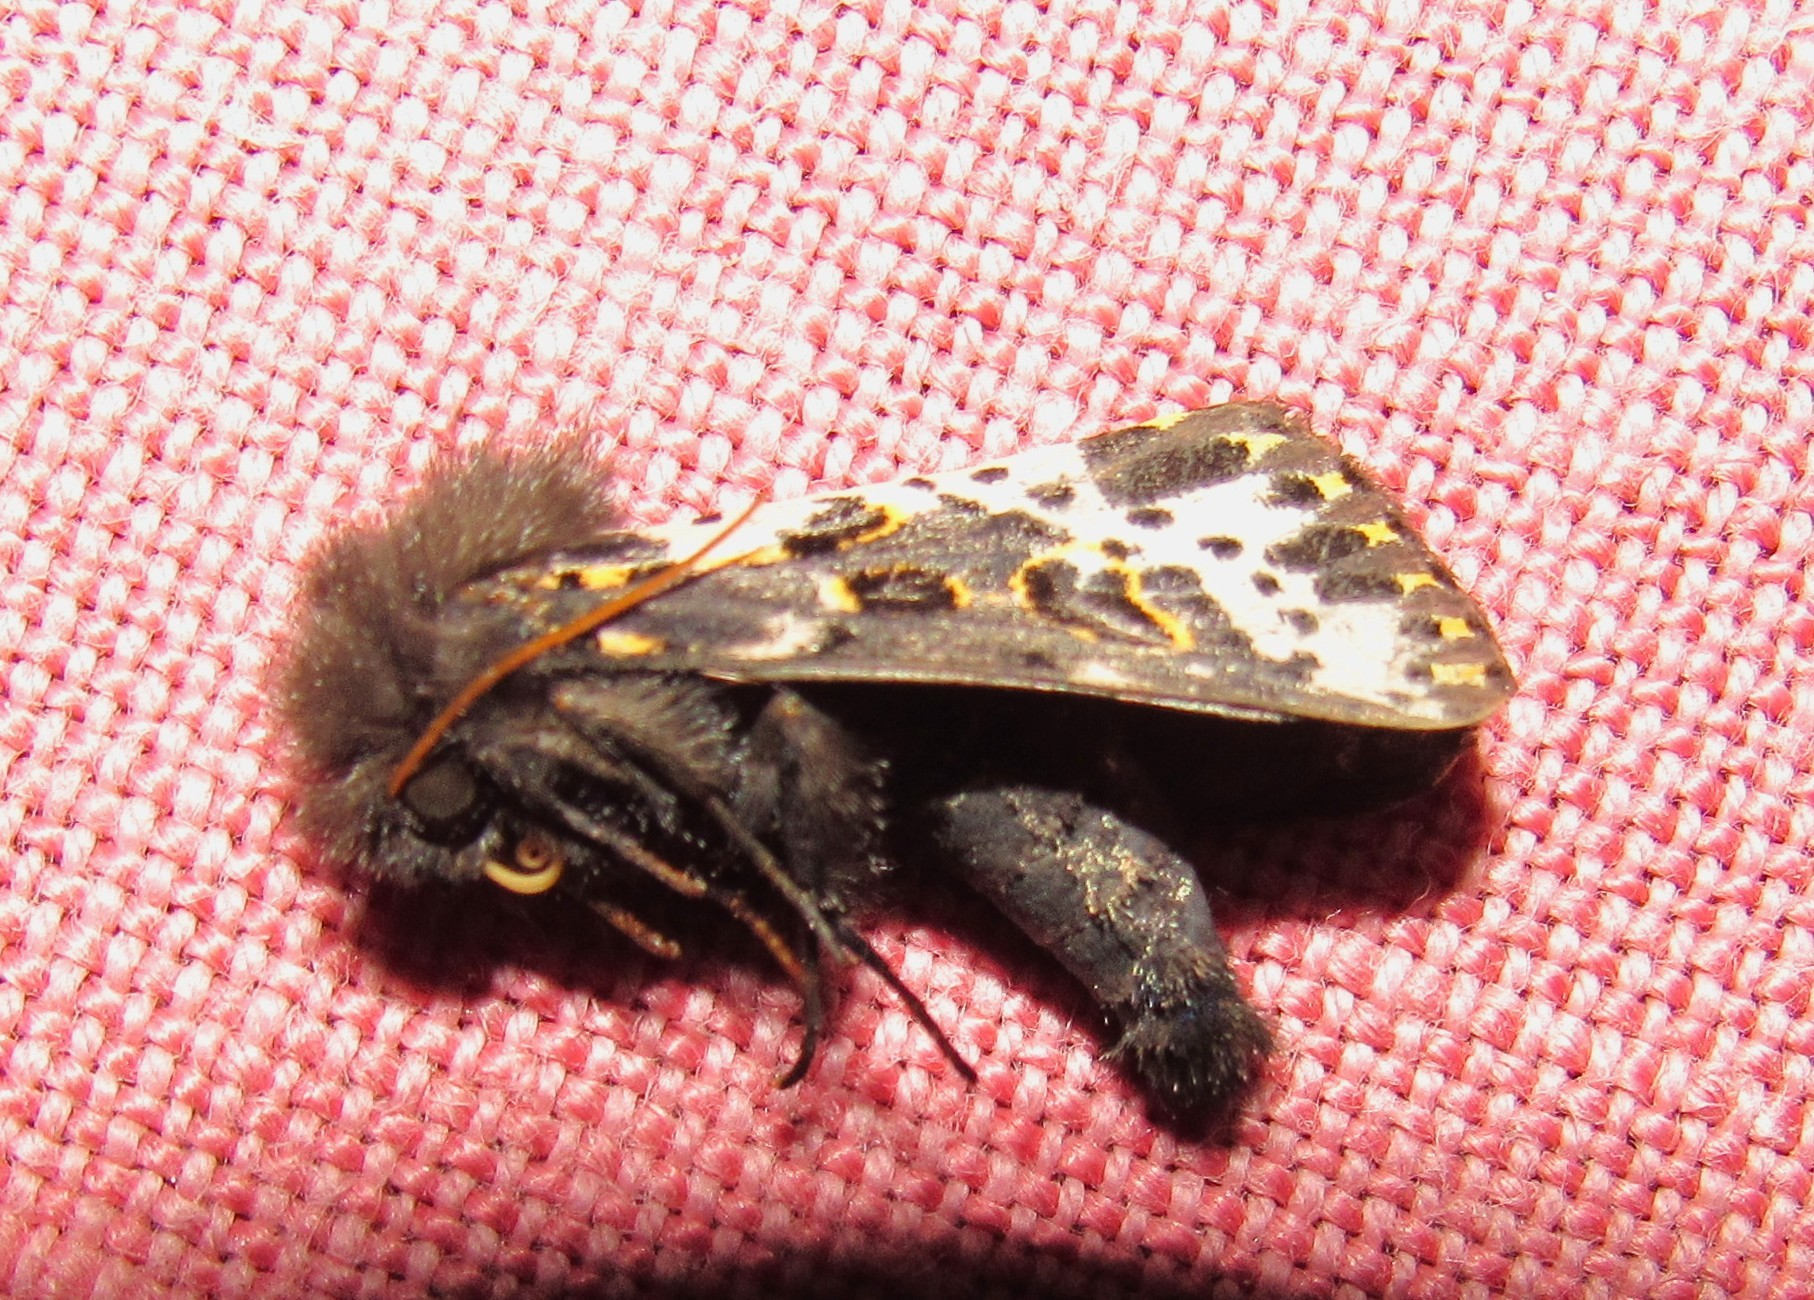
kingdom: Animalia
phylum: Arthropoda
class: Insecta
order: Lepidoptera
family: Noctuidae
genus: Xanthopastis
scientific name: Xanthopastis timais
